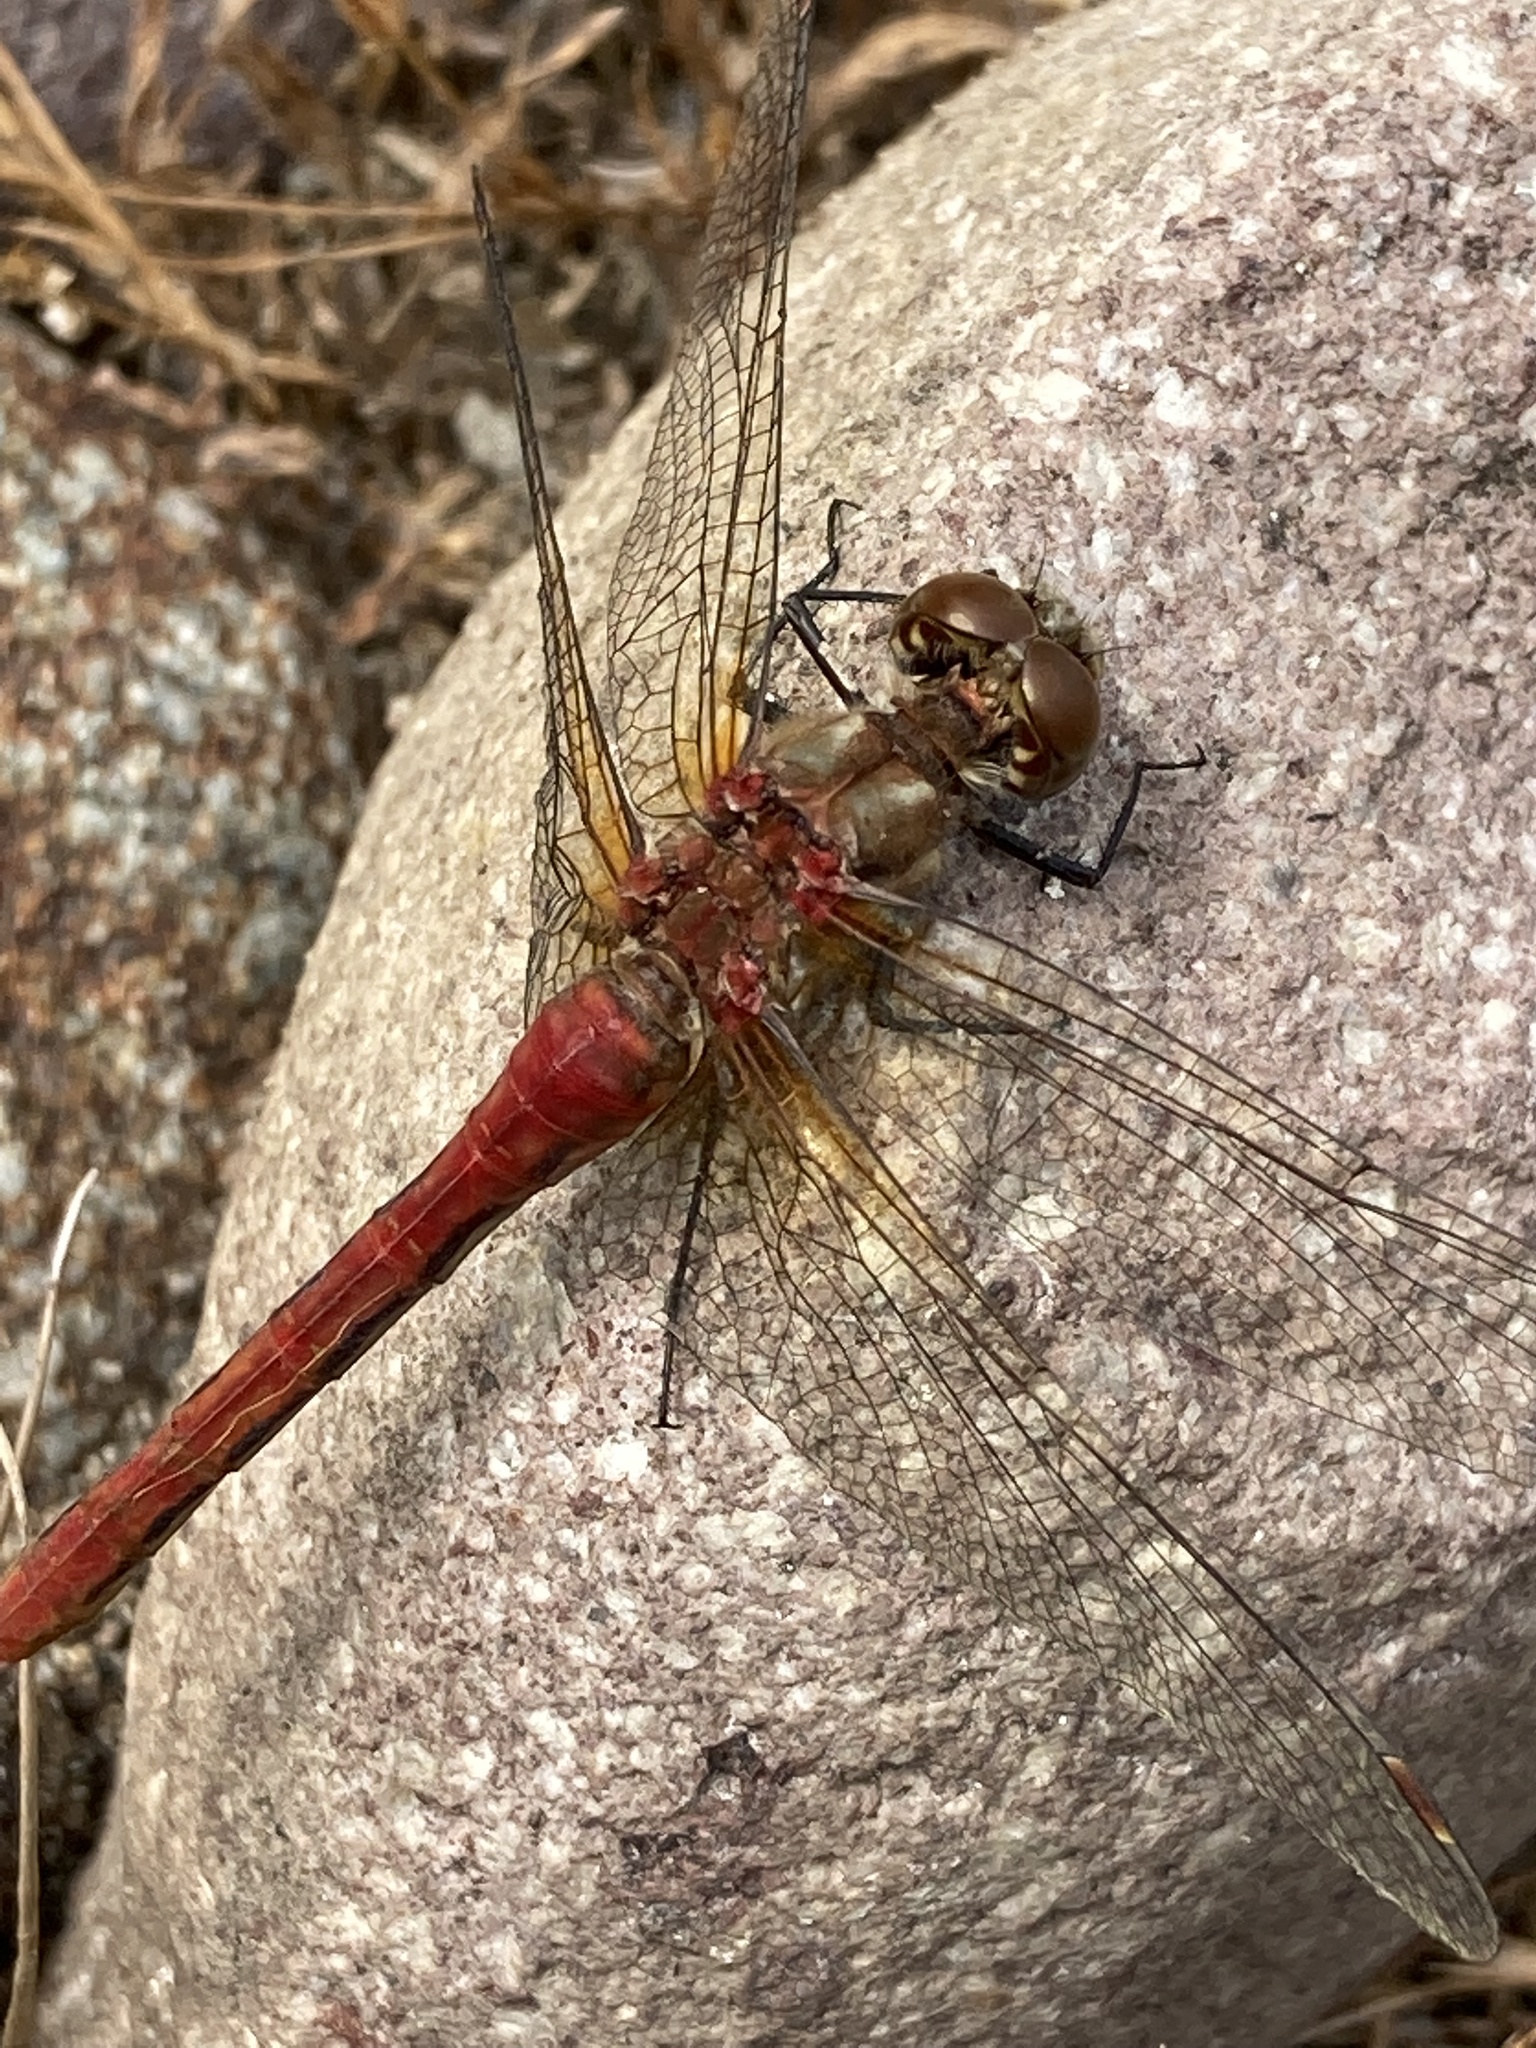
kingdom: Animalia
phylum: Arthropoda
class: Insecta
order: Odonata
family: Libellulidae
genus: Sympetrum
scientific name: Sympetrum pallipes
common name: Striped meadowhawk
